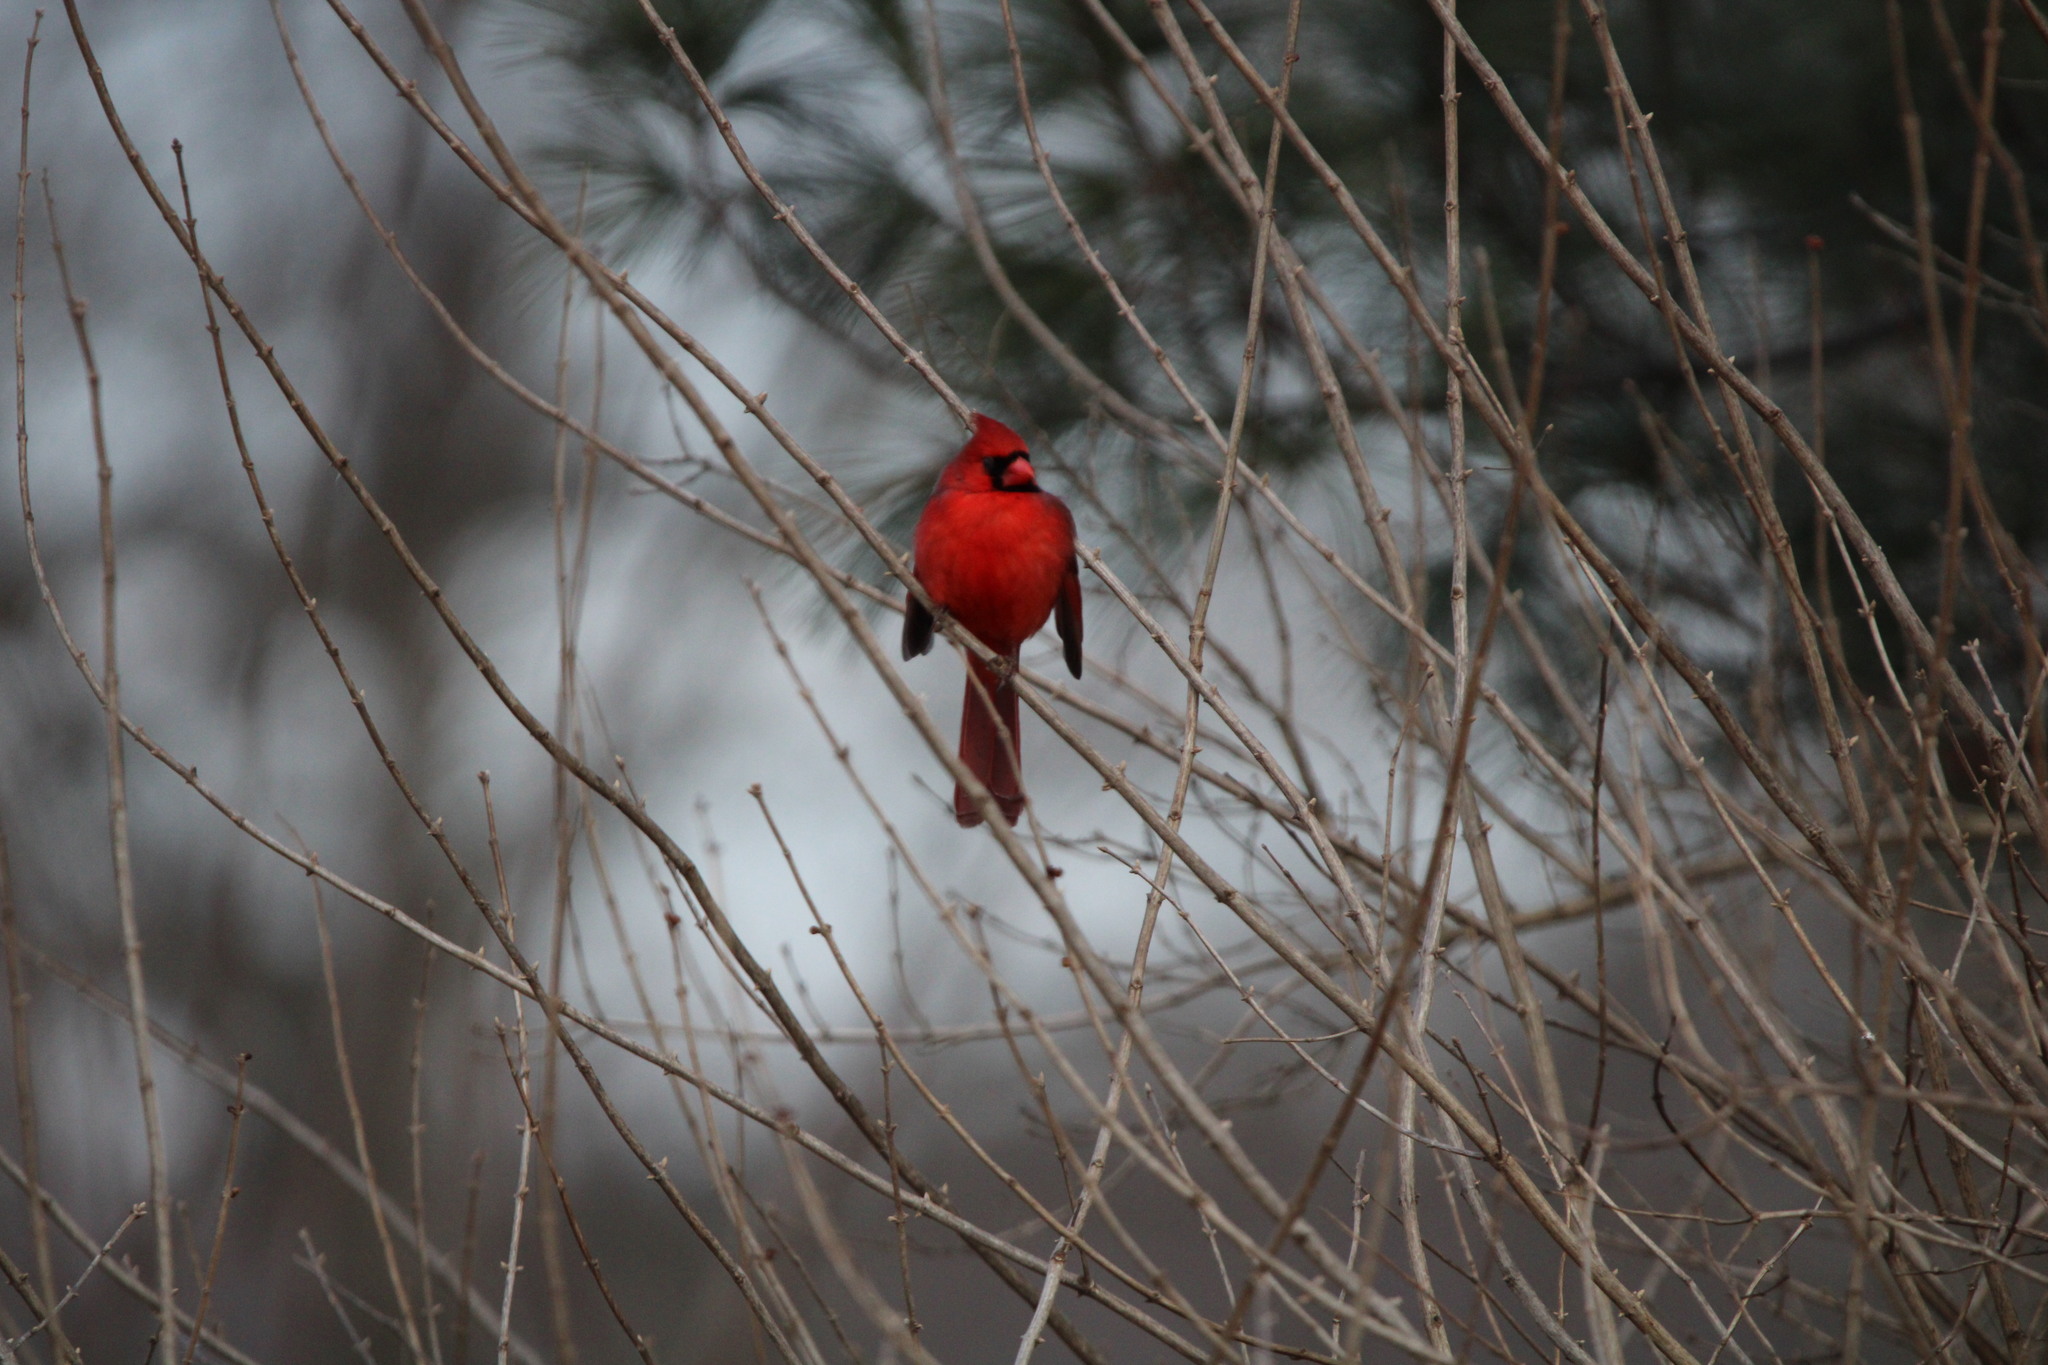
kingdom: Animalia
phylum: Chordata
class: Aves
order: Passeriformes
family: Cardinalidae
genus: Cardinalis
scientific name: Cardinalis cardinalis
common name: Northern cardinal
